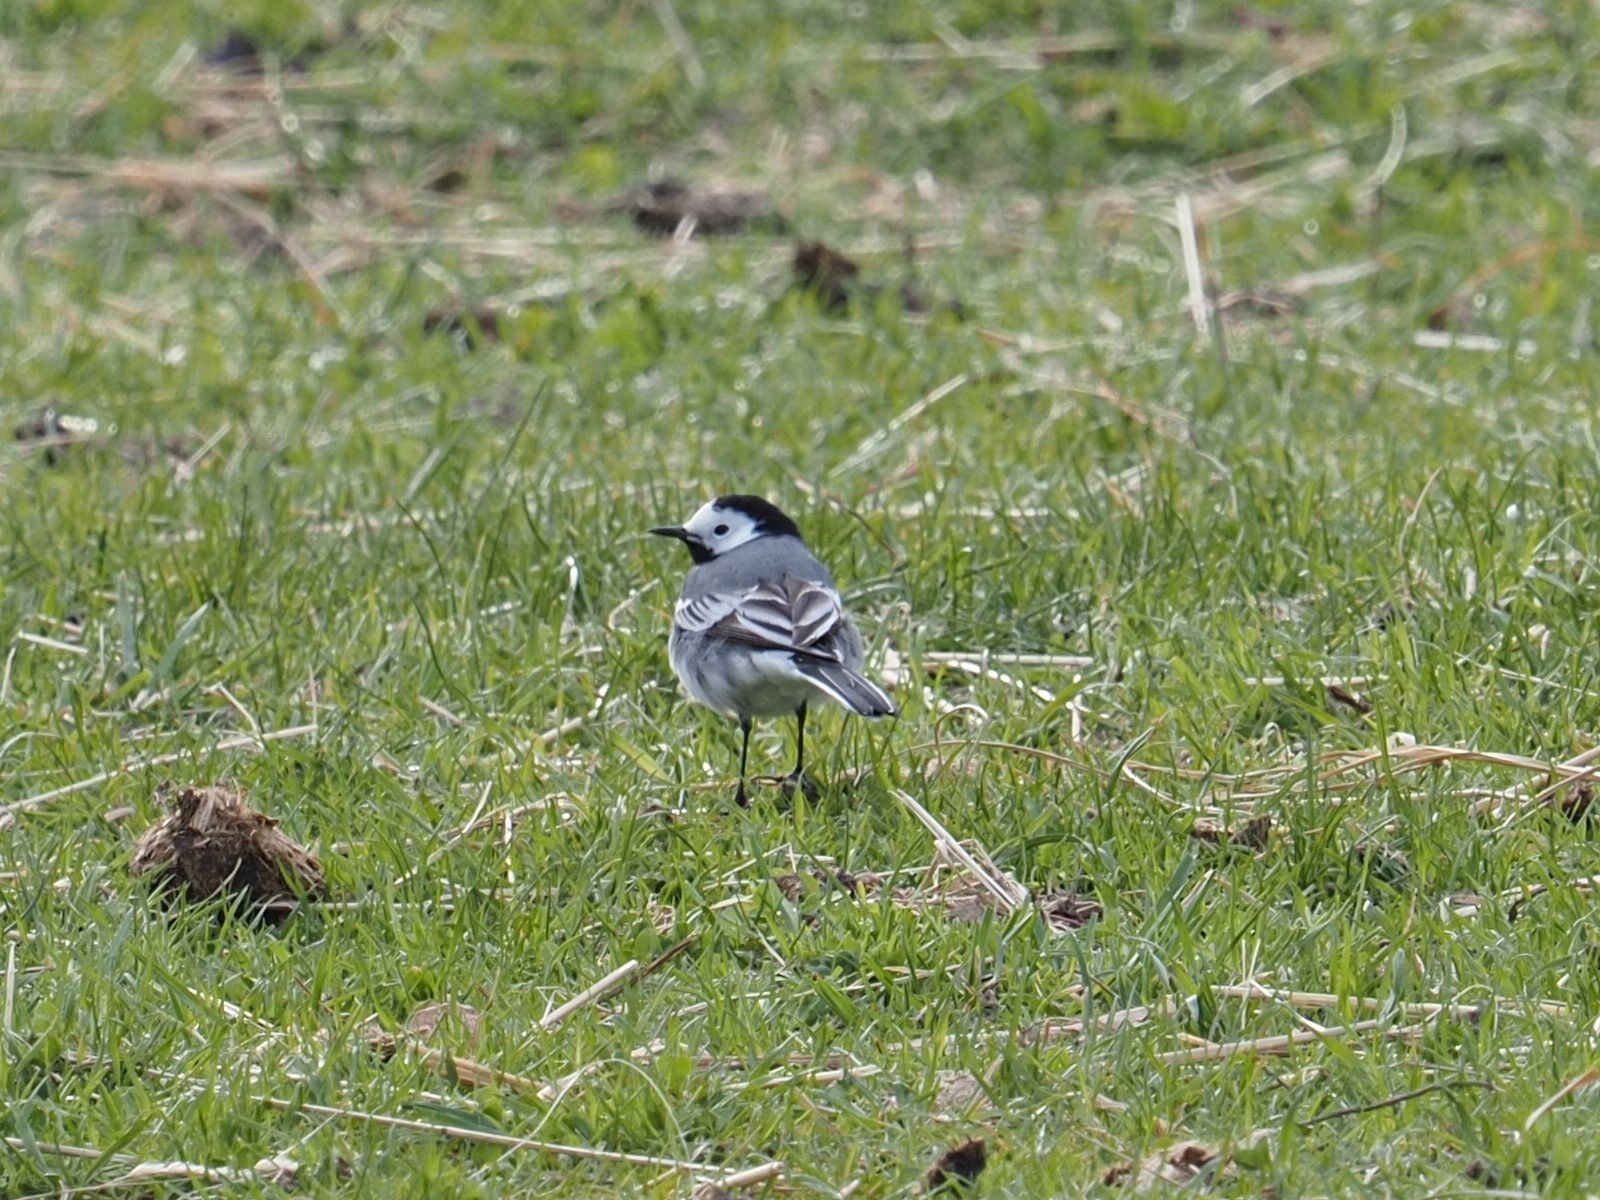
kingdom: Animalia
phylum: Chordata
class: Aves
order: Passeriformes
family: Motacillidae
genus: Motacilla
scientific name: Motacilla alba
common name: White wagtail
